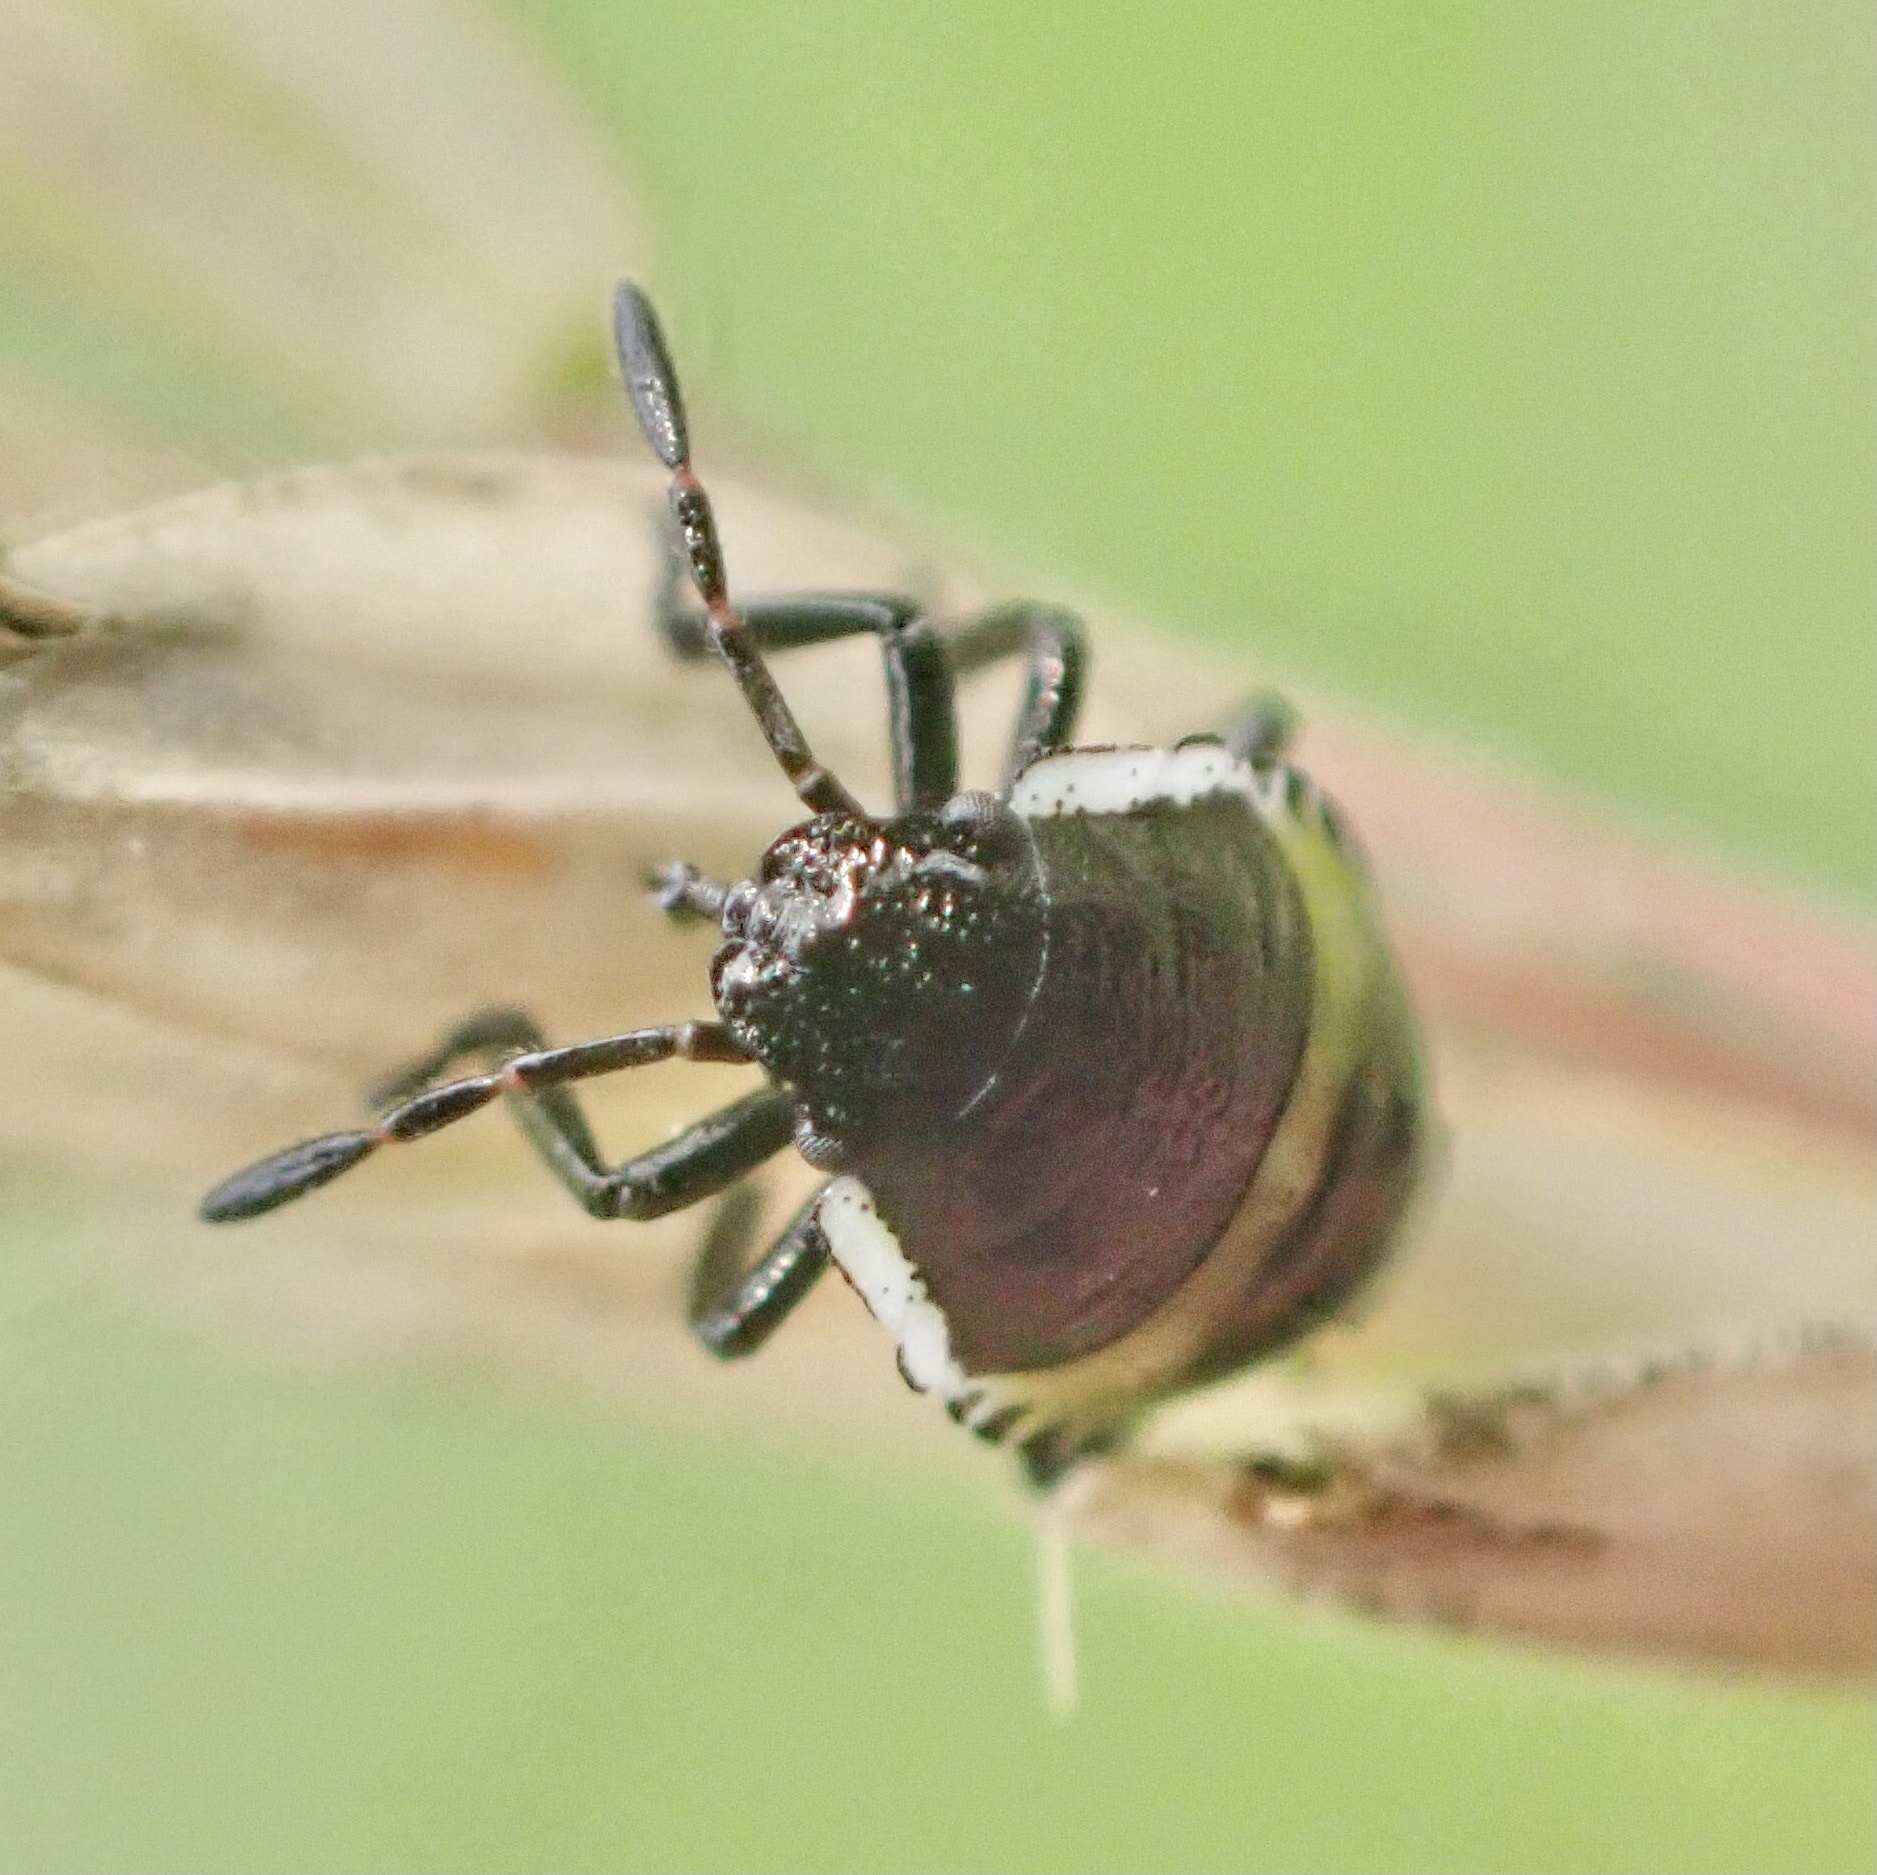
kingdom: Animalia
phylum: Arthropoda
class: Insecta
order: Hemiptera
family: Pentatomidae
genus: Palomena
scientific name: Palomena prasina
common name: Green shieldbug
